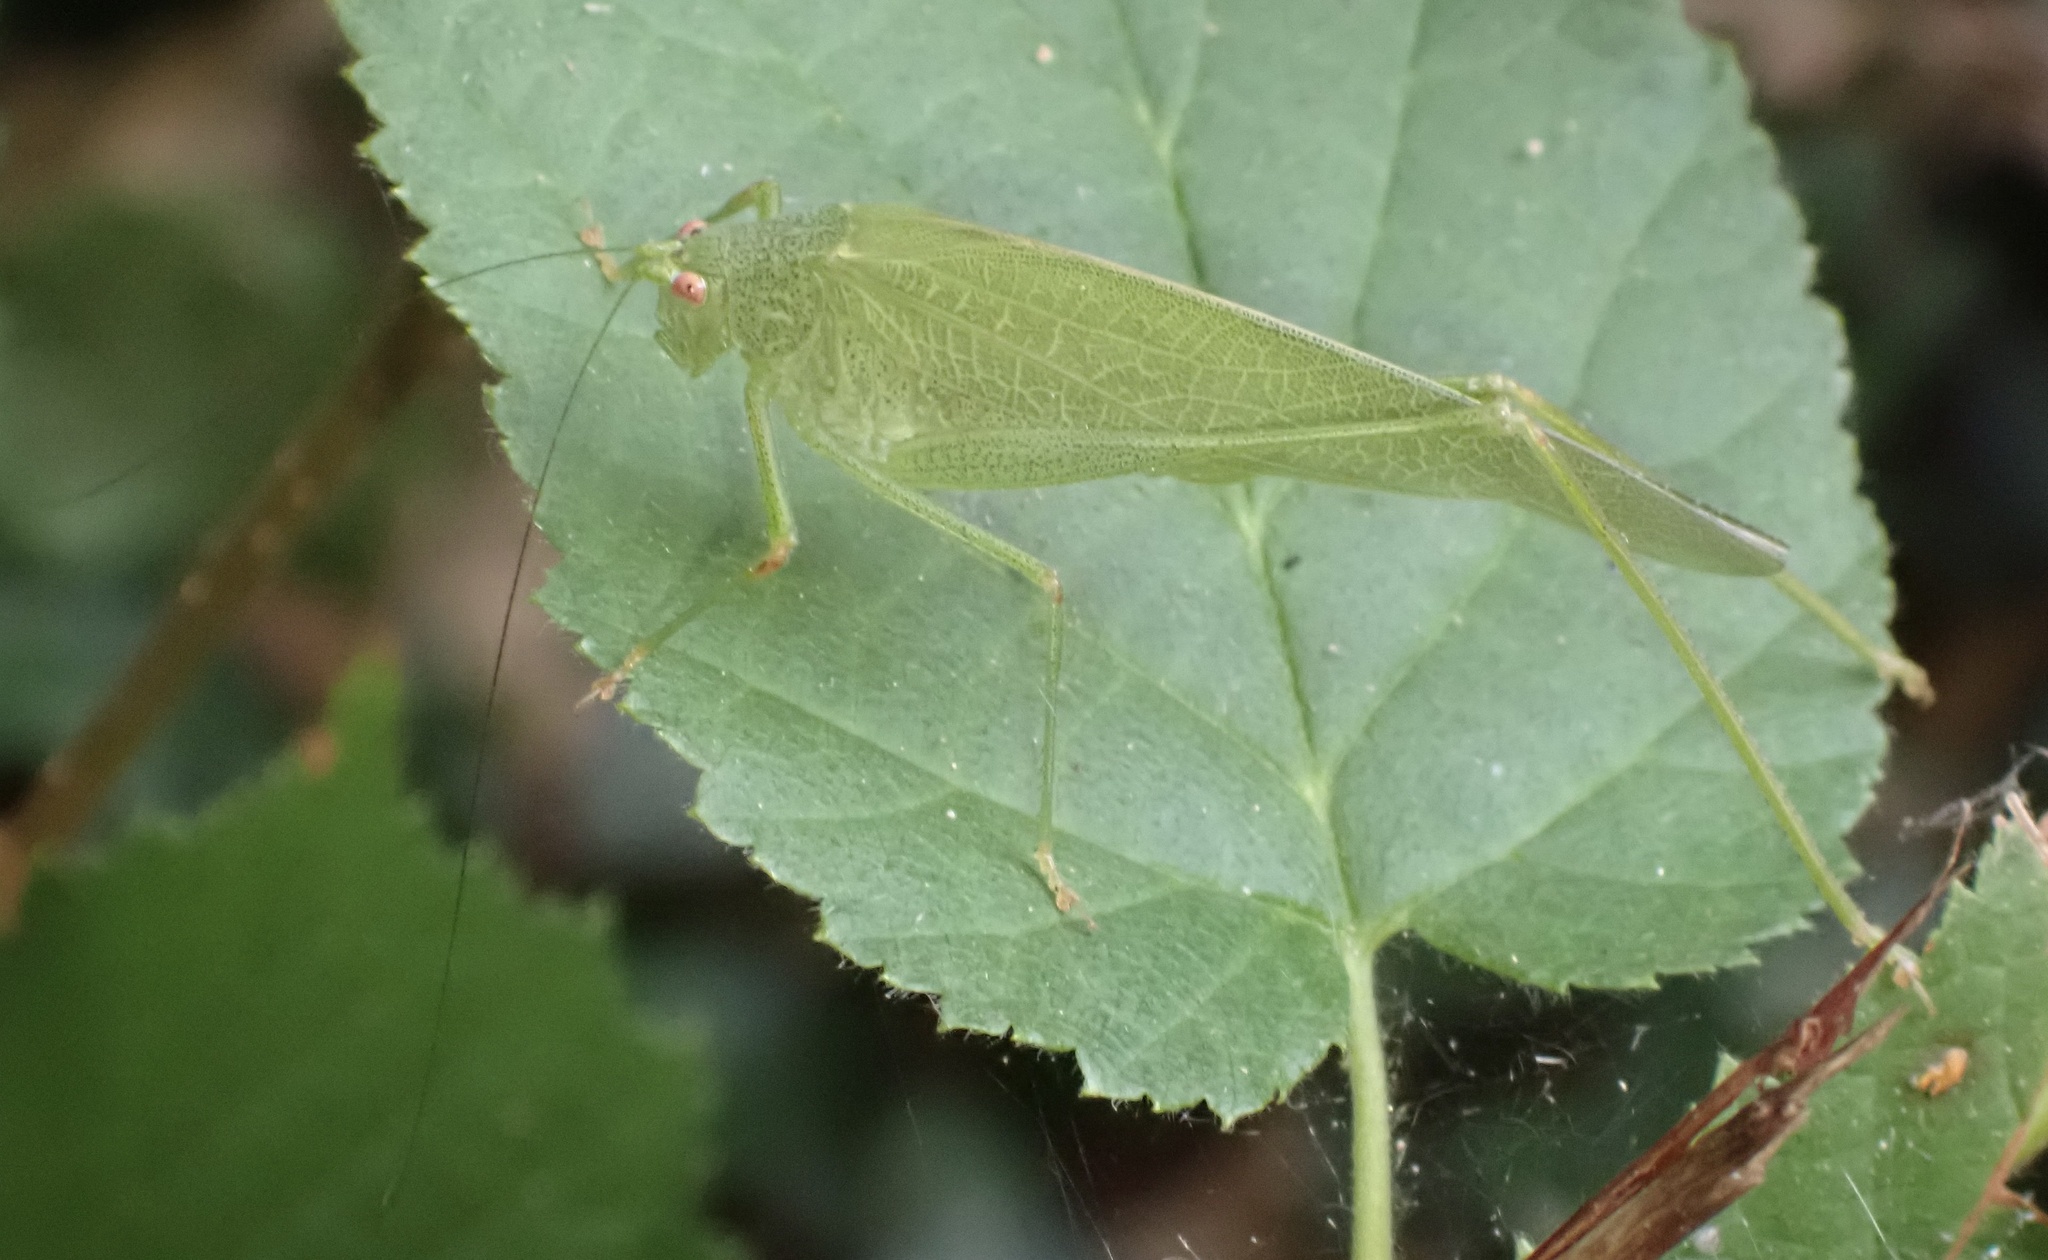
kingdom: Animalia
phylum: Arthropoda
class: Insecta
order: Orthoptera
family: Tettigoniidae
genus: Phaneroptera
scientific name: Phaneroptera nana
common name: Southern sickle bush-cricket
